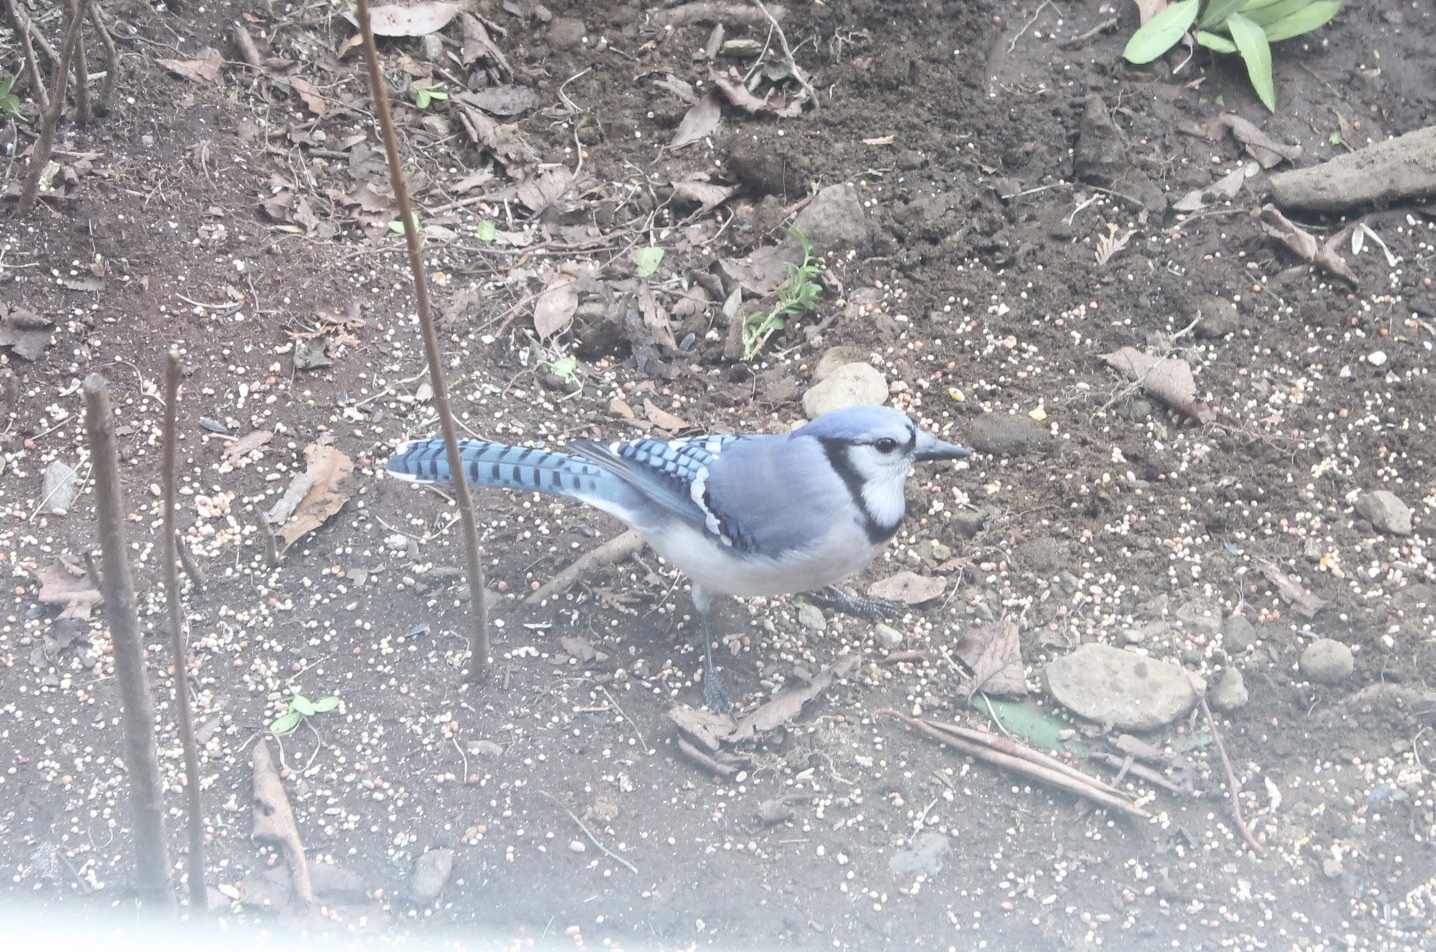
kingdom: Animalia
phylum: Chordata
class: Aves
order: Passeriformes
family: Corvidae
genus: Cyanocitta
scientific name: Cyanocitta cristata
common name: Blue jay
